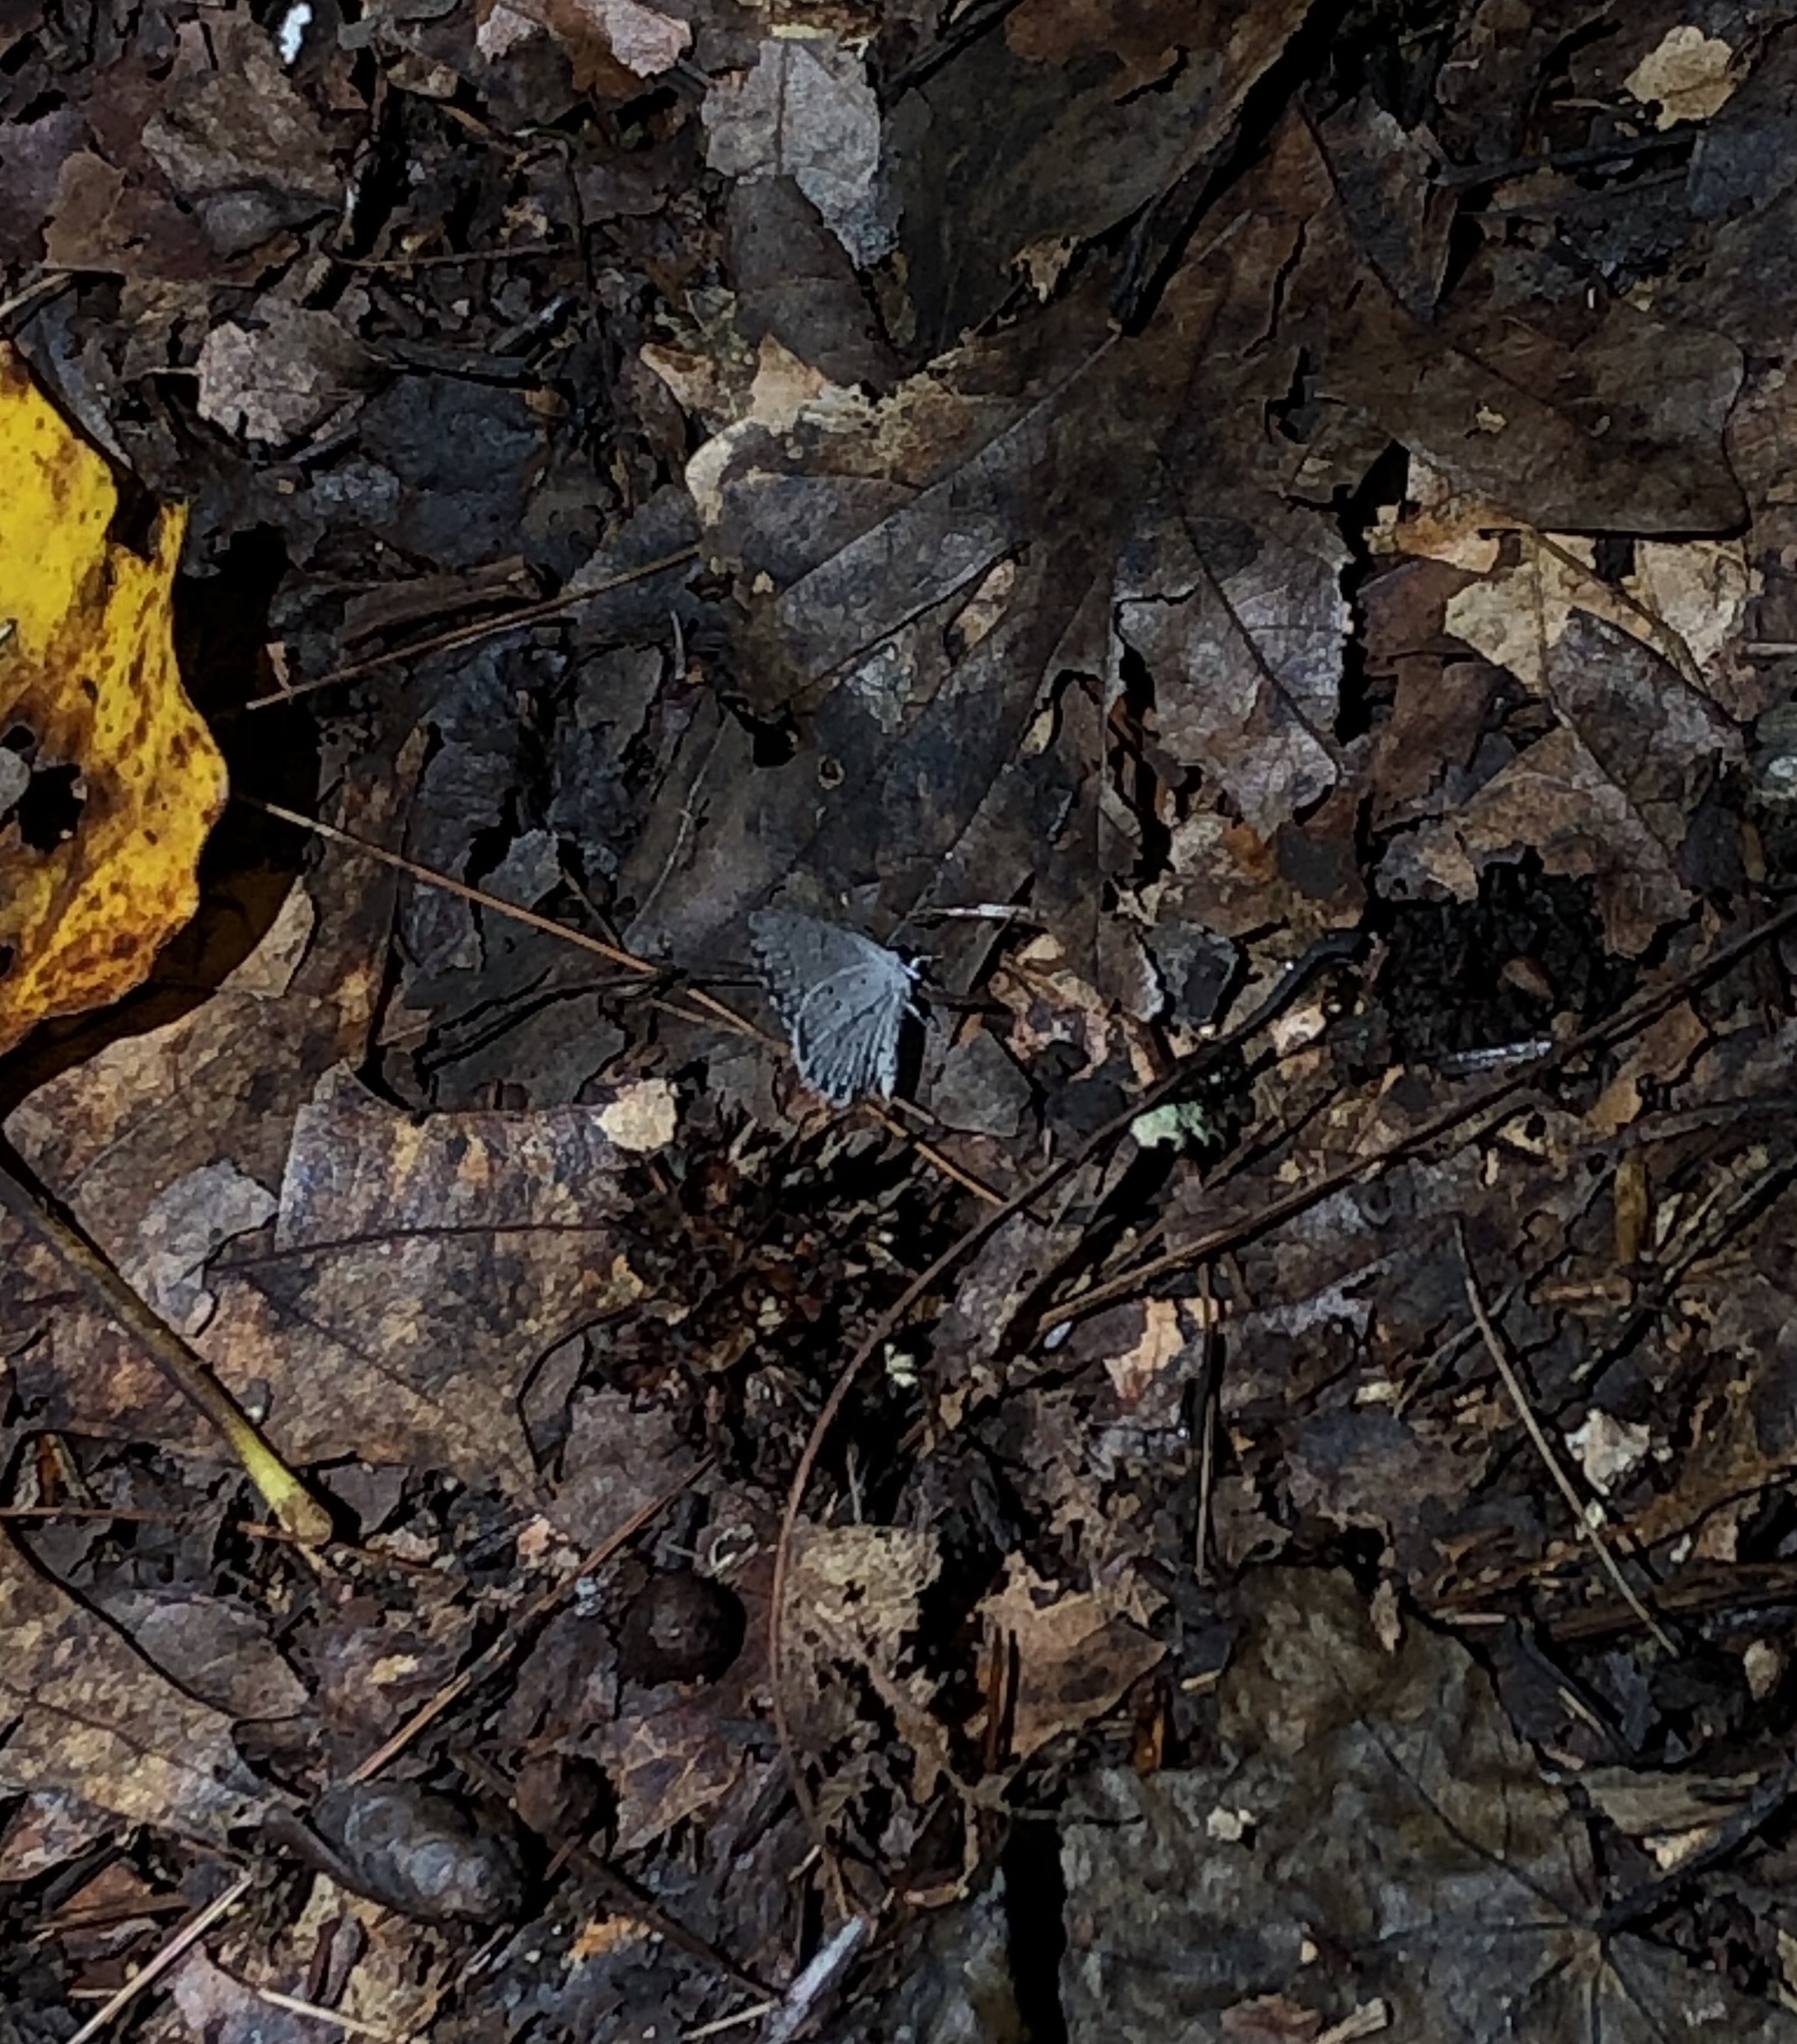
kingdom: Animalia
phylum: Arthropoda
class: Insecta
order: Lepidoptera
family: Lycaenidae
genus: Cyaniris
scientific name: Cyaniris neglecta
